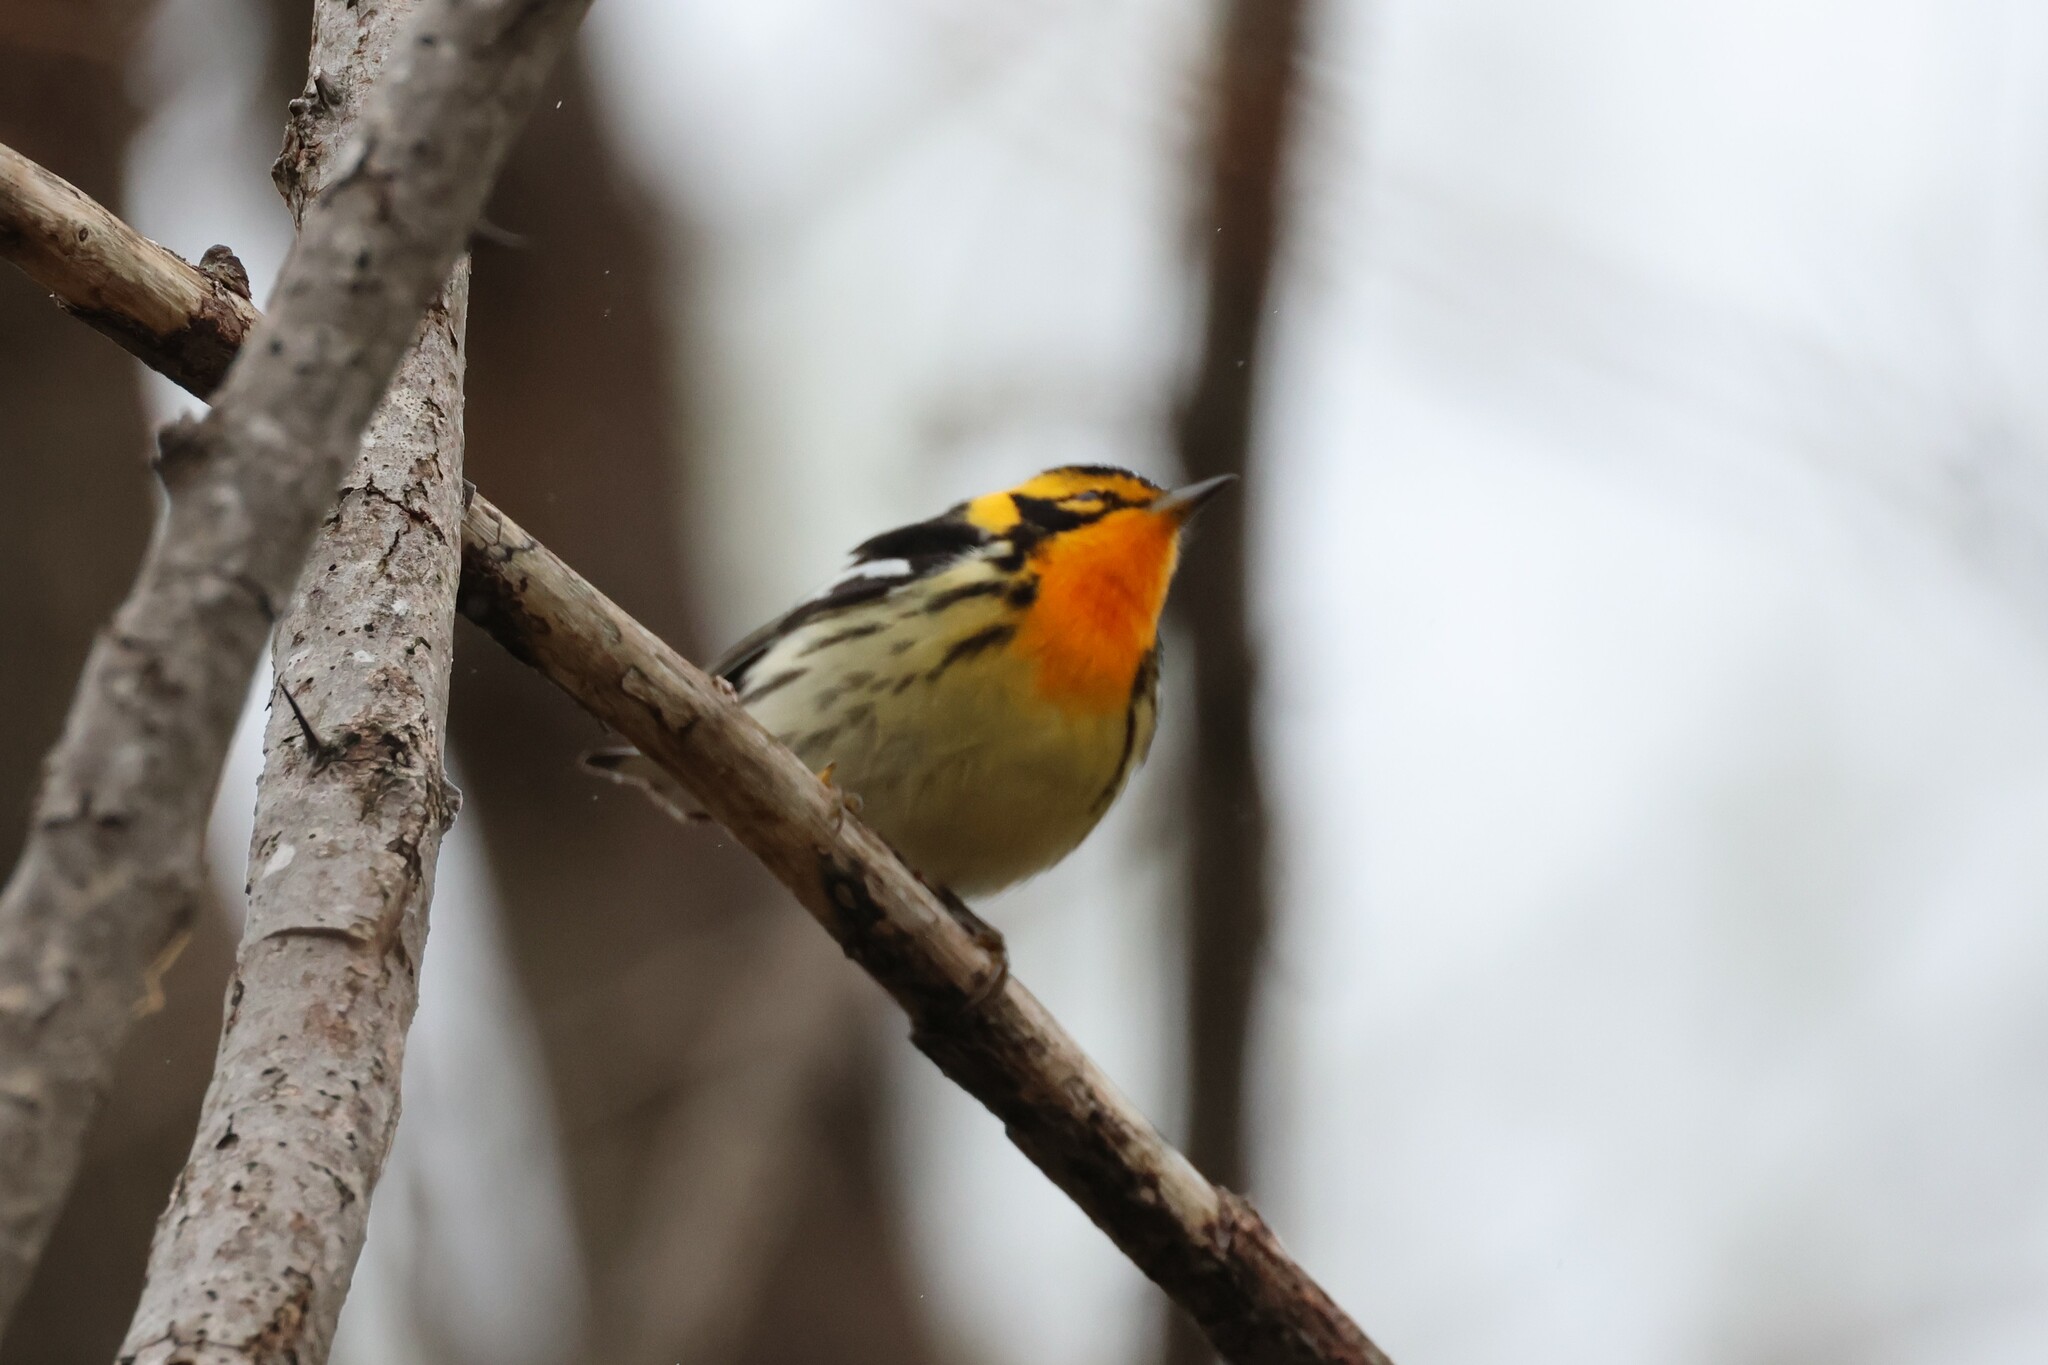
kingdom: Animalia
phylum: Chordata
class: Aves
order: Passeriformes
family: Parulidae
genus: Setophaga
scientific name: Setophaga fusca
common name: Blackburnian warbler
